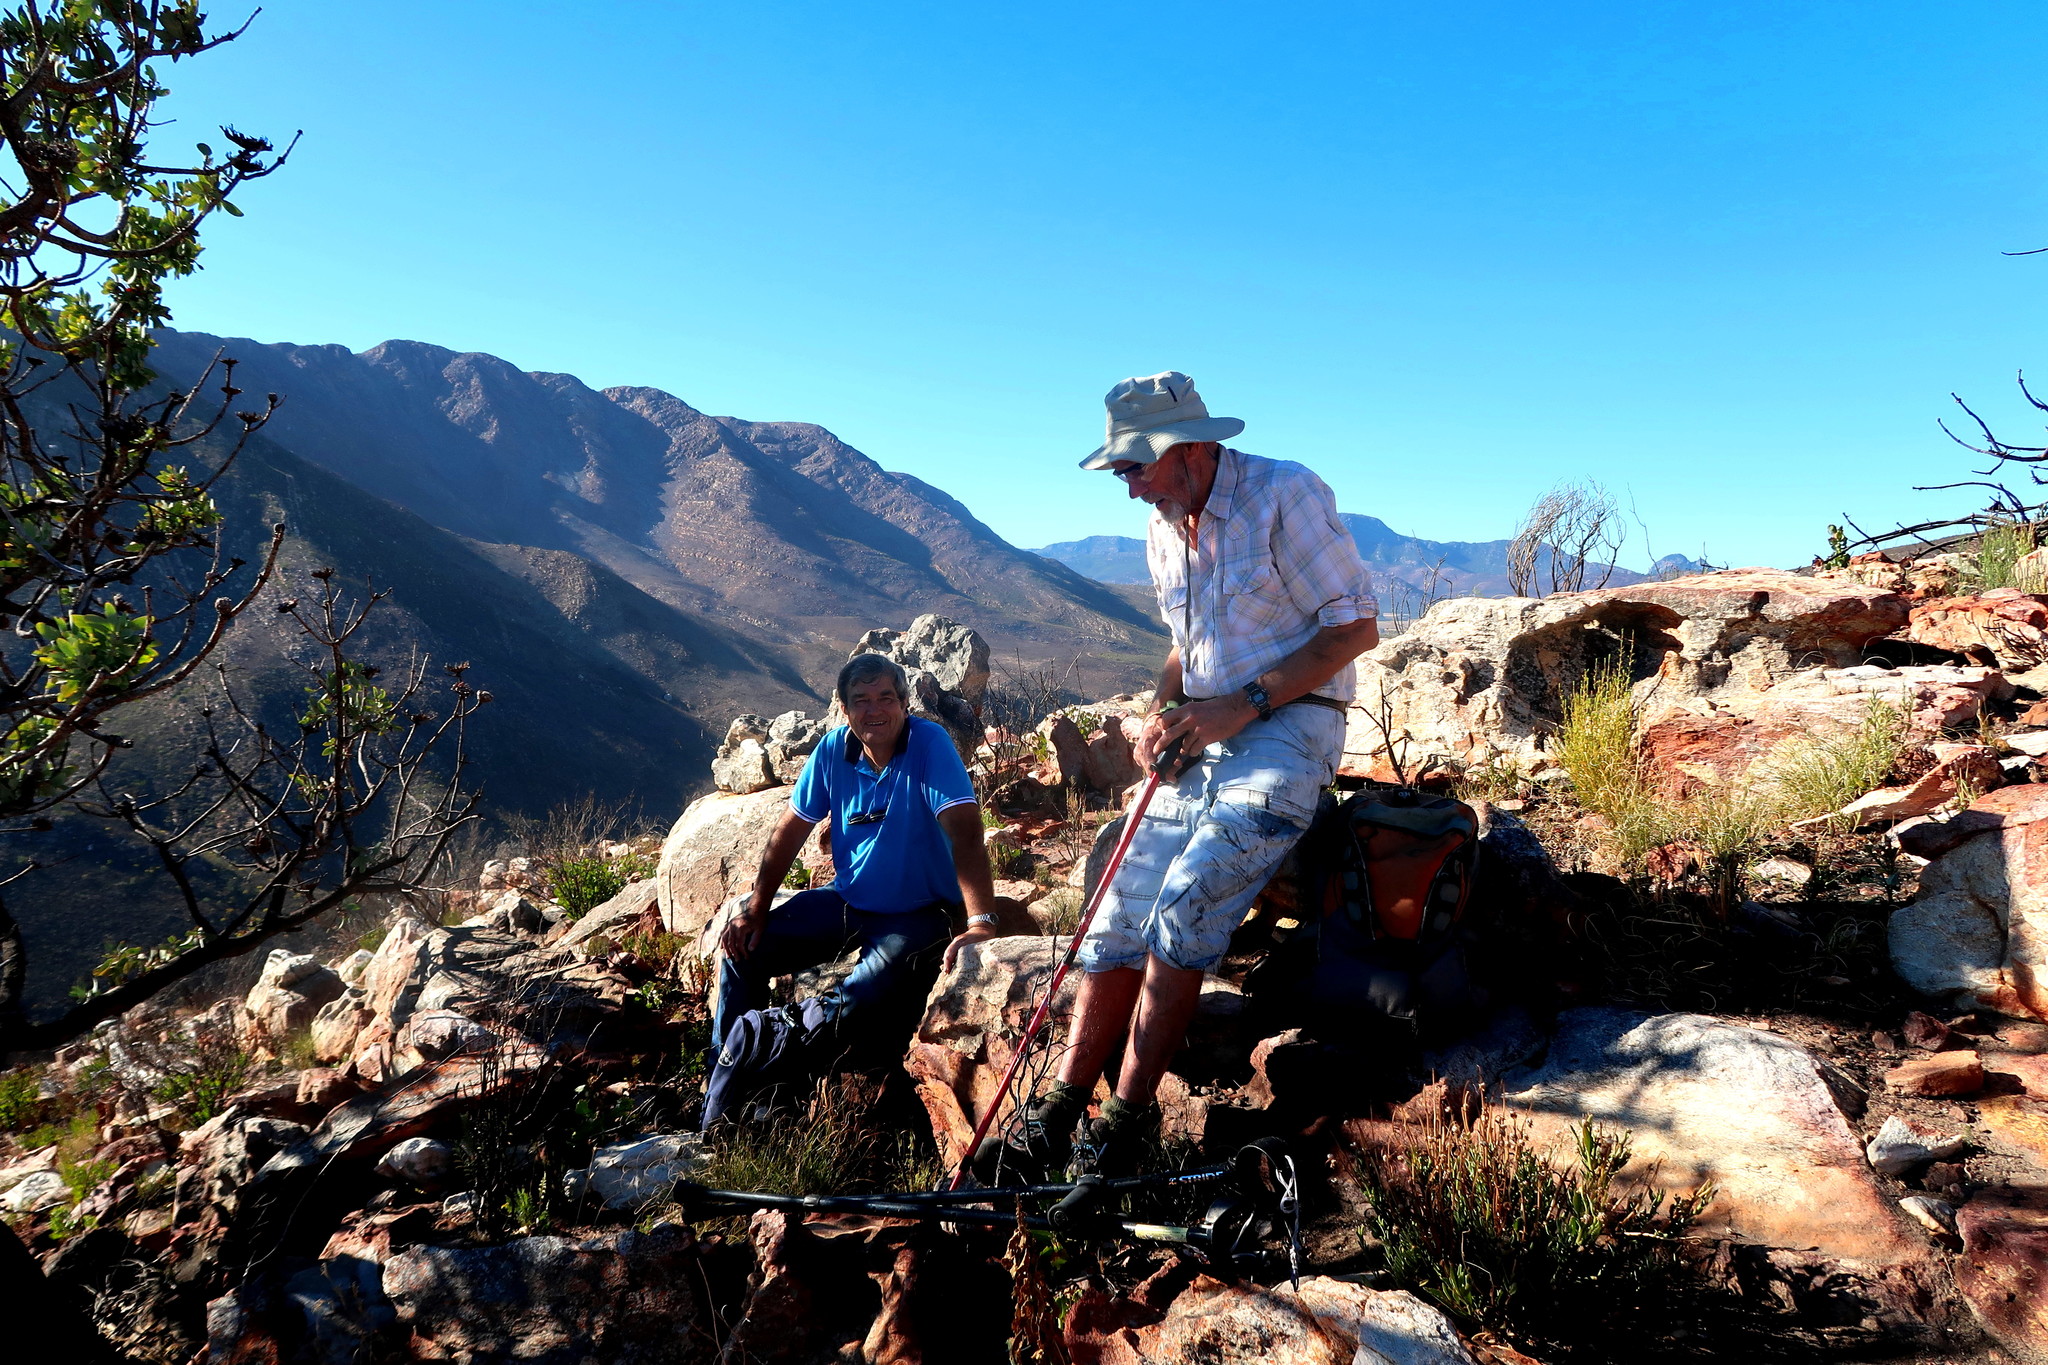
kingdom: Plantae
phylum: Tracheophyta
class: Magnoliopsida
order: Proteales
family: Proteaceae
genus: Protea
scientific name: Protea nitida
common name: Tree protea
